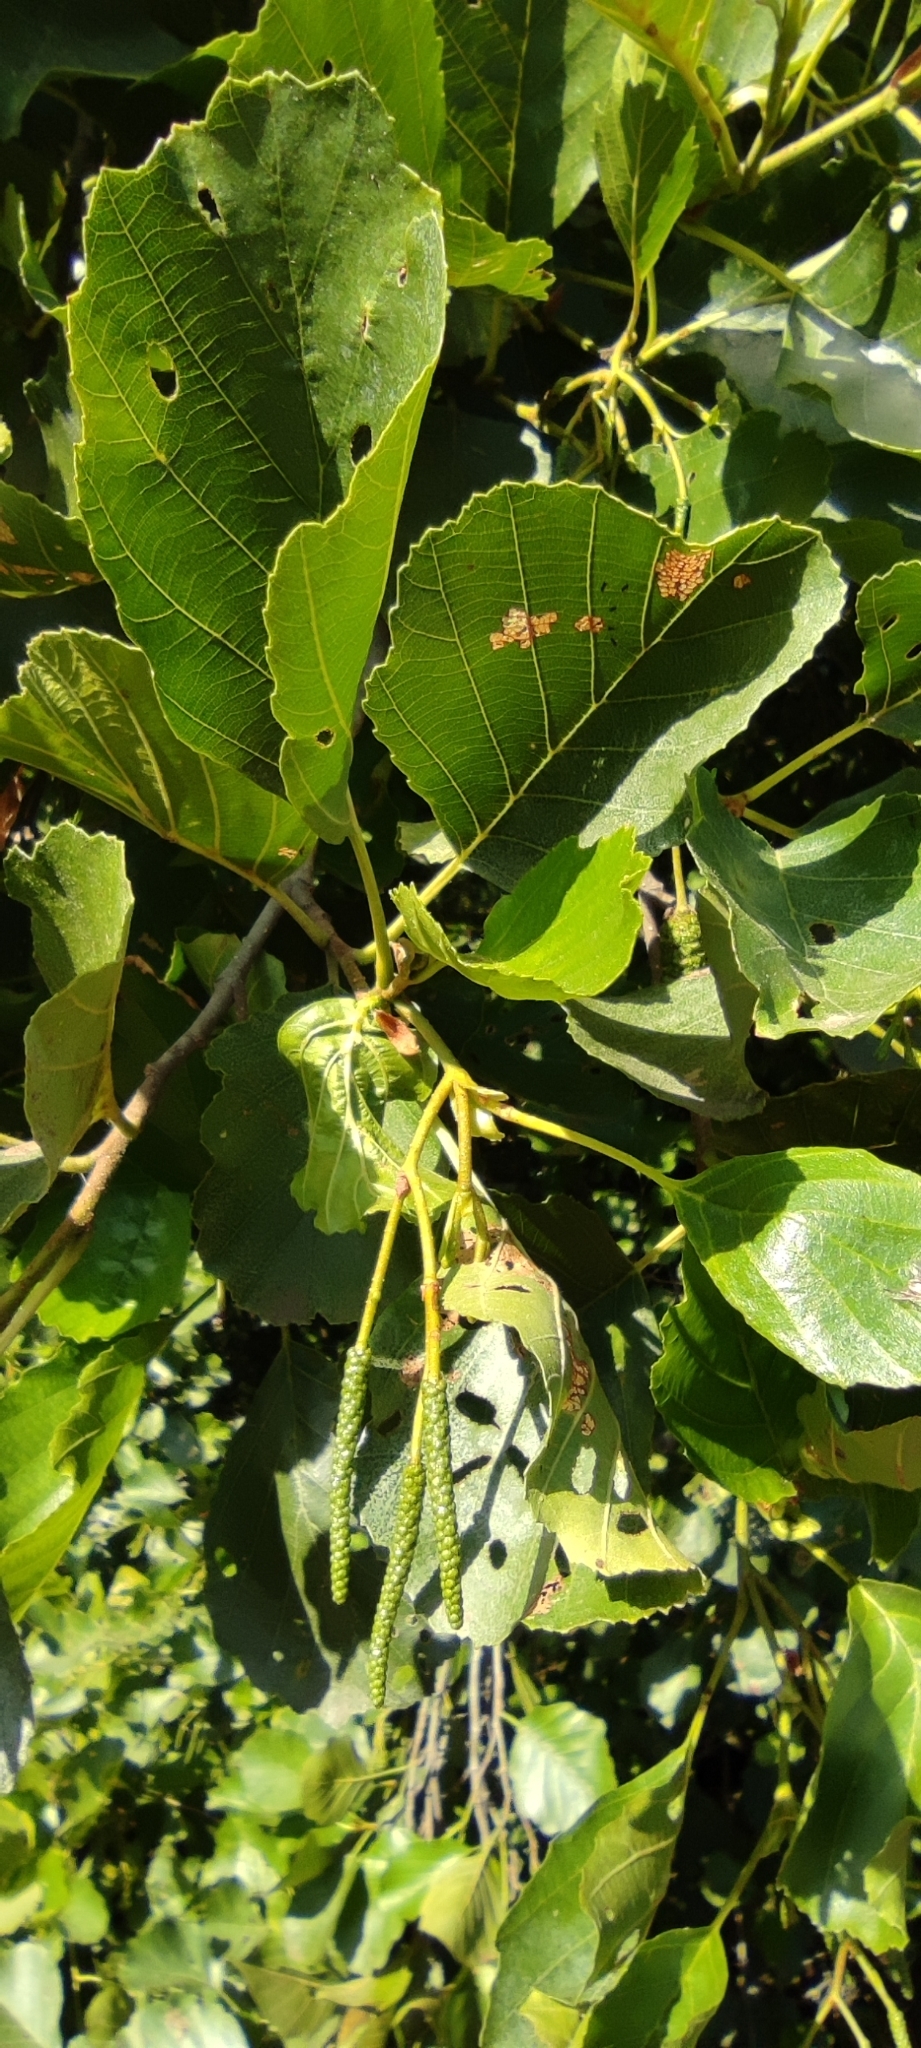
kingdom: Plantae
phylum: Tracheophyta
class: Magnoliopsida
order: Fagales
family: Betulaceae
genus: Alnus
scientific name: Alnus lusitanica
